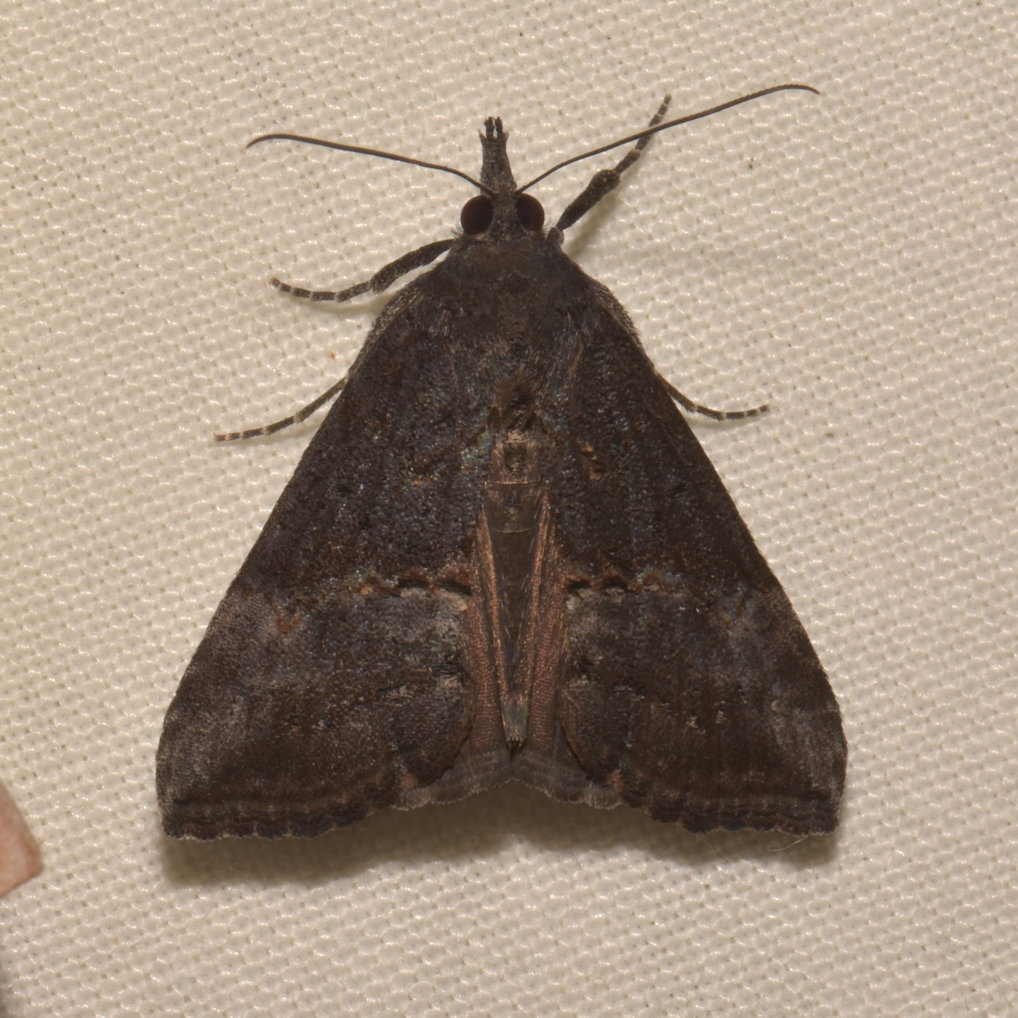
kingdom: Animalia
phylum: Arthropoda
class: Insecta
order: Lepidoptera
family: Erebidae
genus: Hypena
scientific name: Hypena scabra
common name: Green cloverworm
